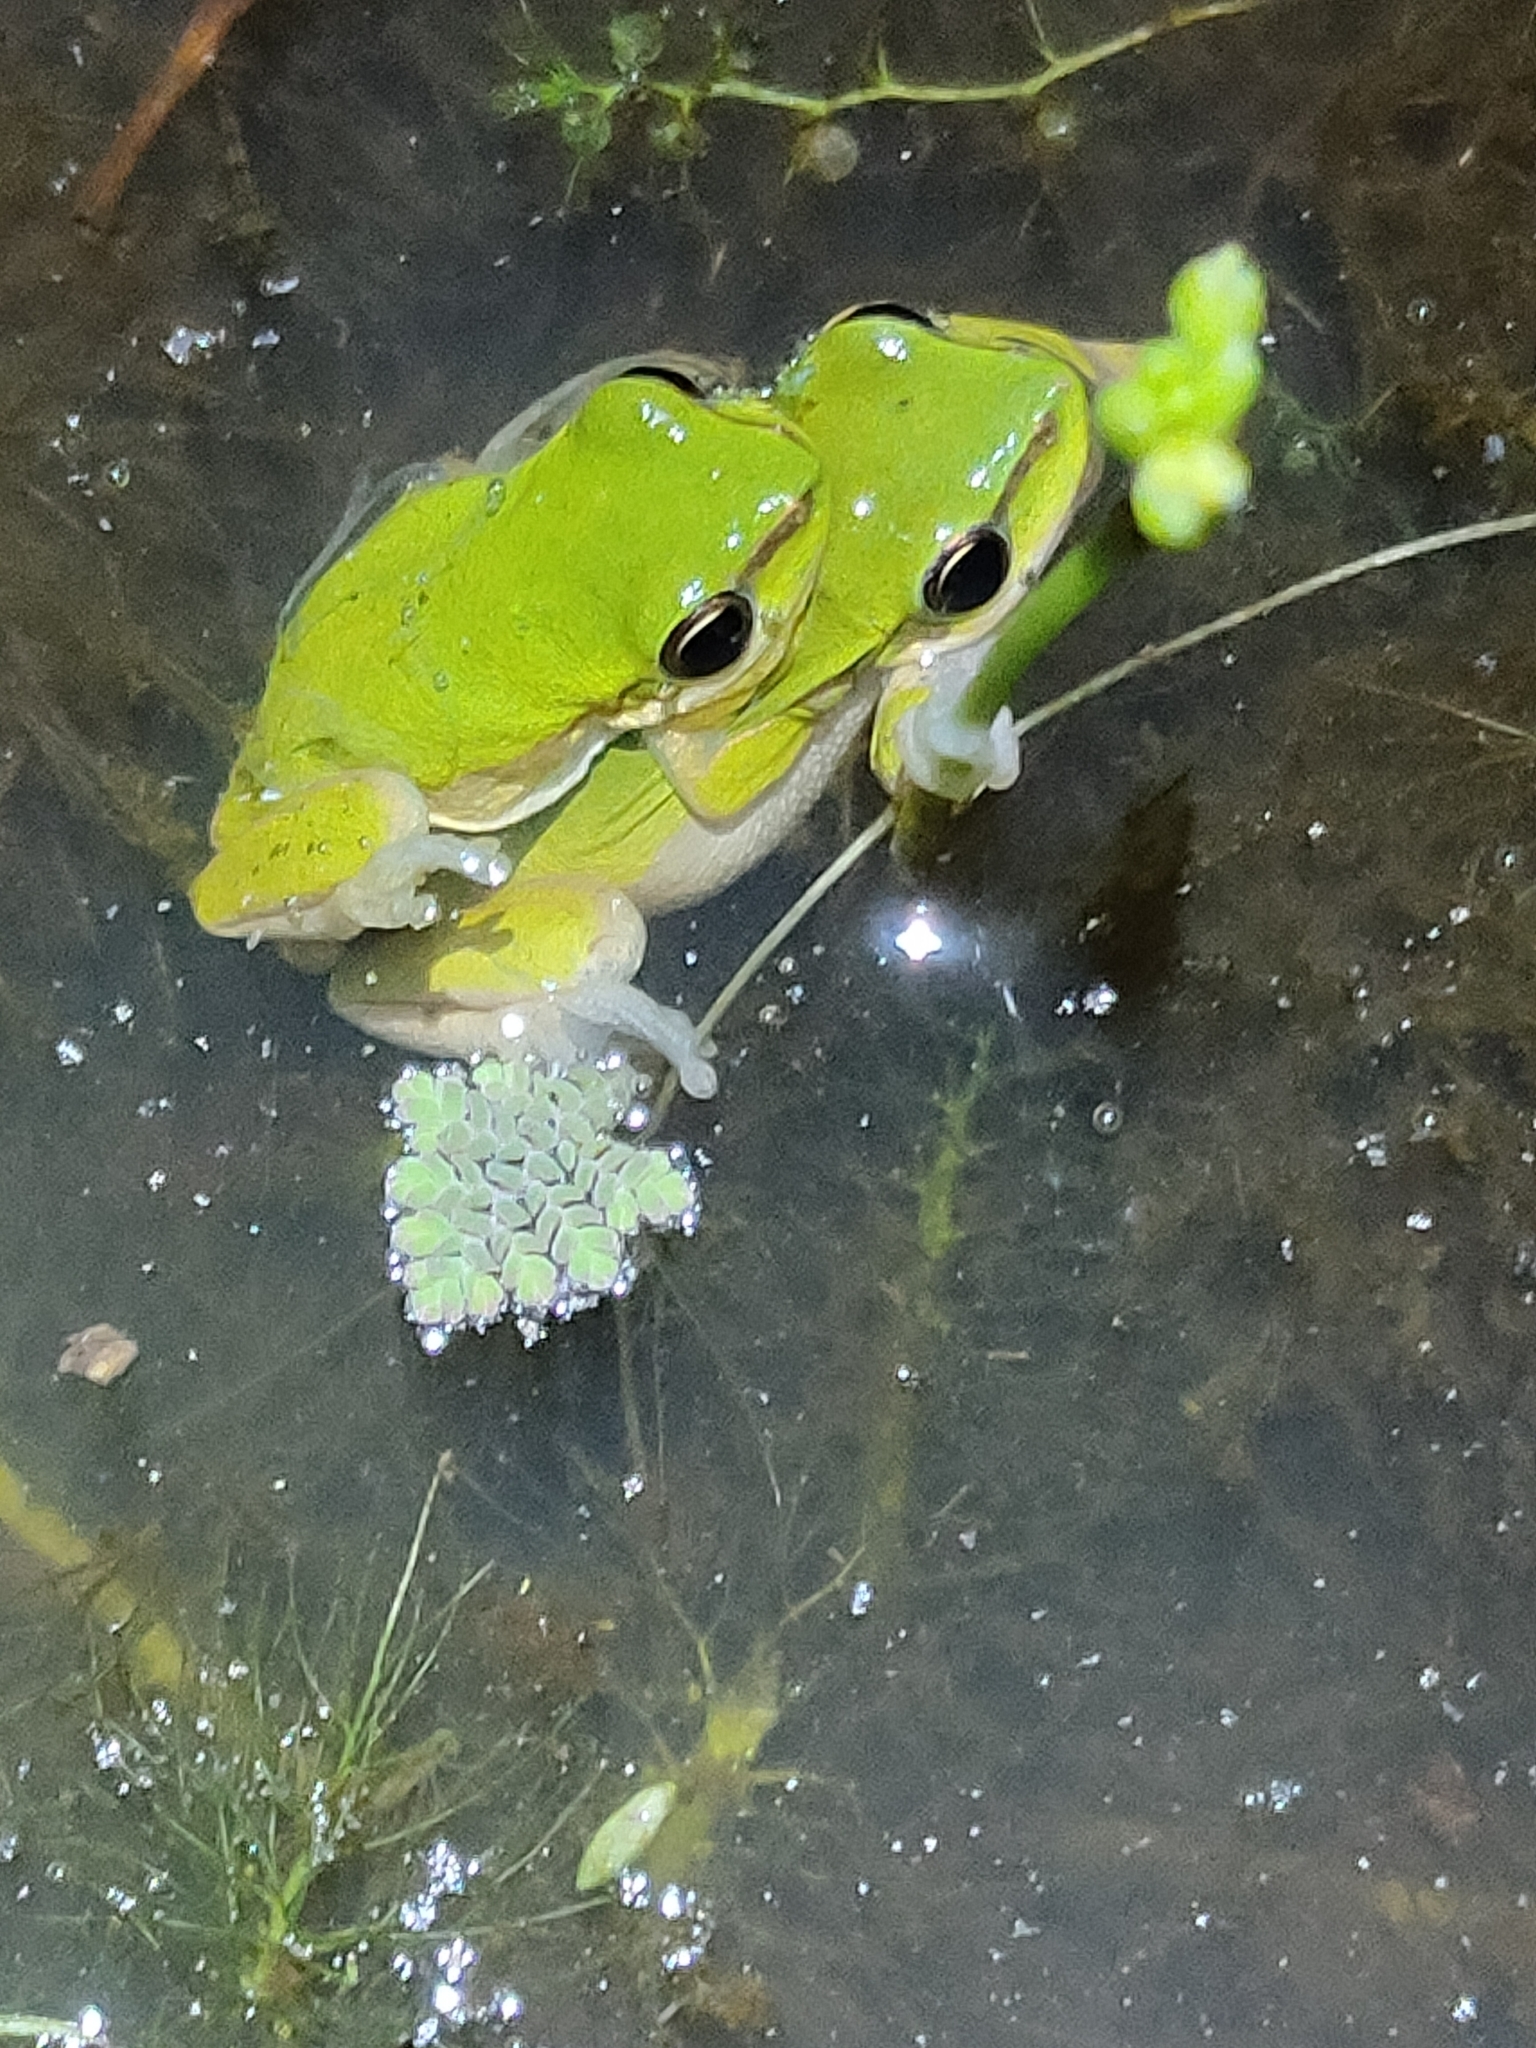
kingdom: Animalia
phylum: Chordata
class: Amphibia
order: Anura
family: Pelodryadidae
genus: Litoria
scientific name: Litoria fallax
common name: Eastern dwarf treefrog
